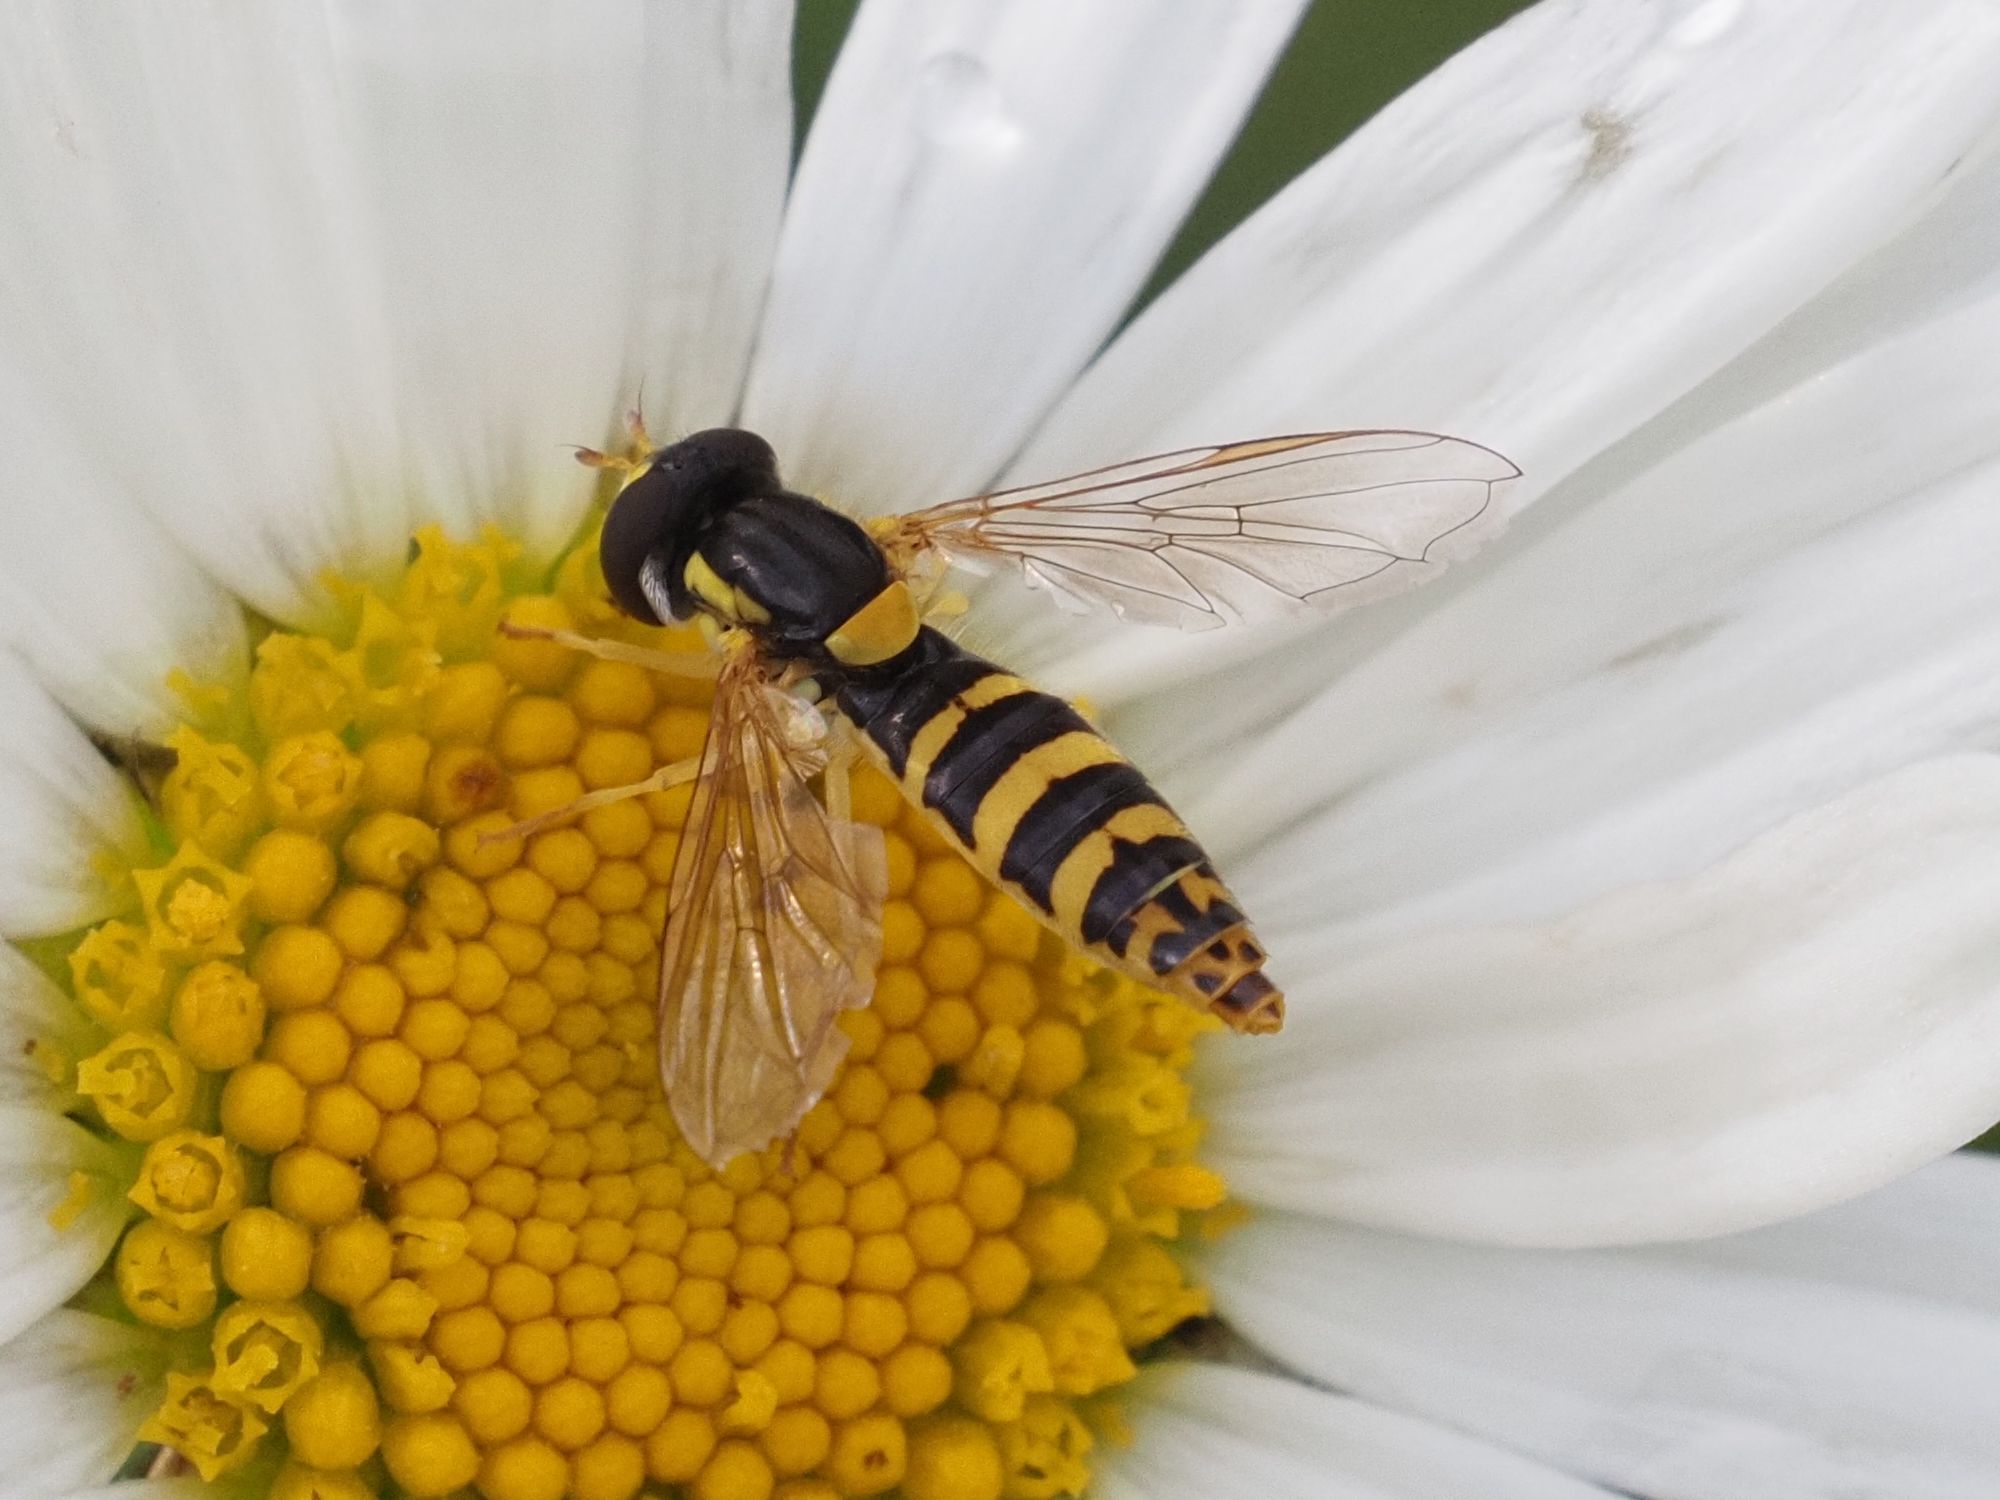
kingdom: Animalia
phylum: Arthropoda
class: Insecta
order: Diptera
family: Syrphidae
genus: Sphaerophoria
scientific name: Sphaerophoria
